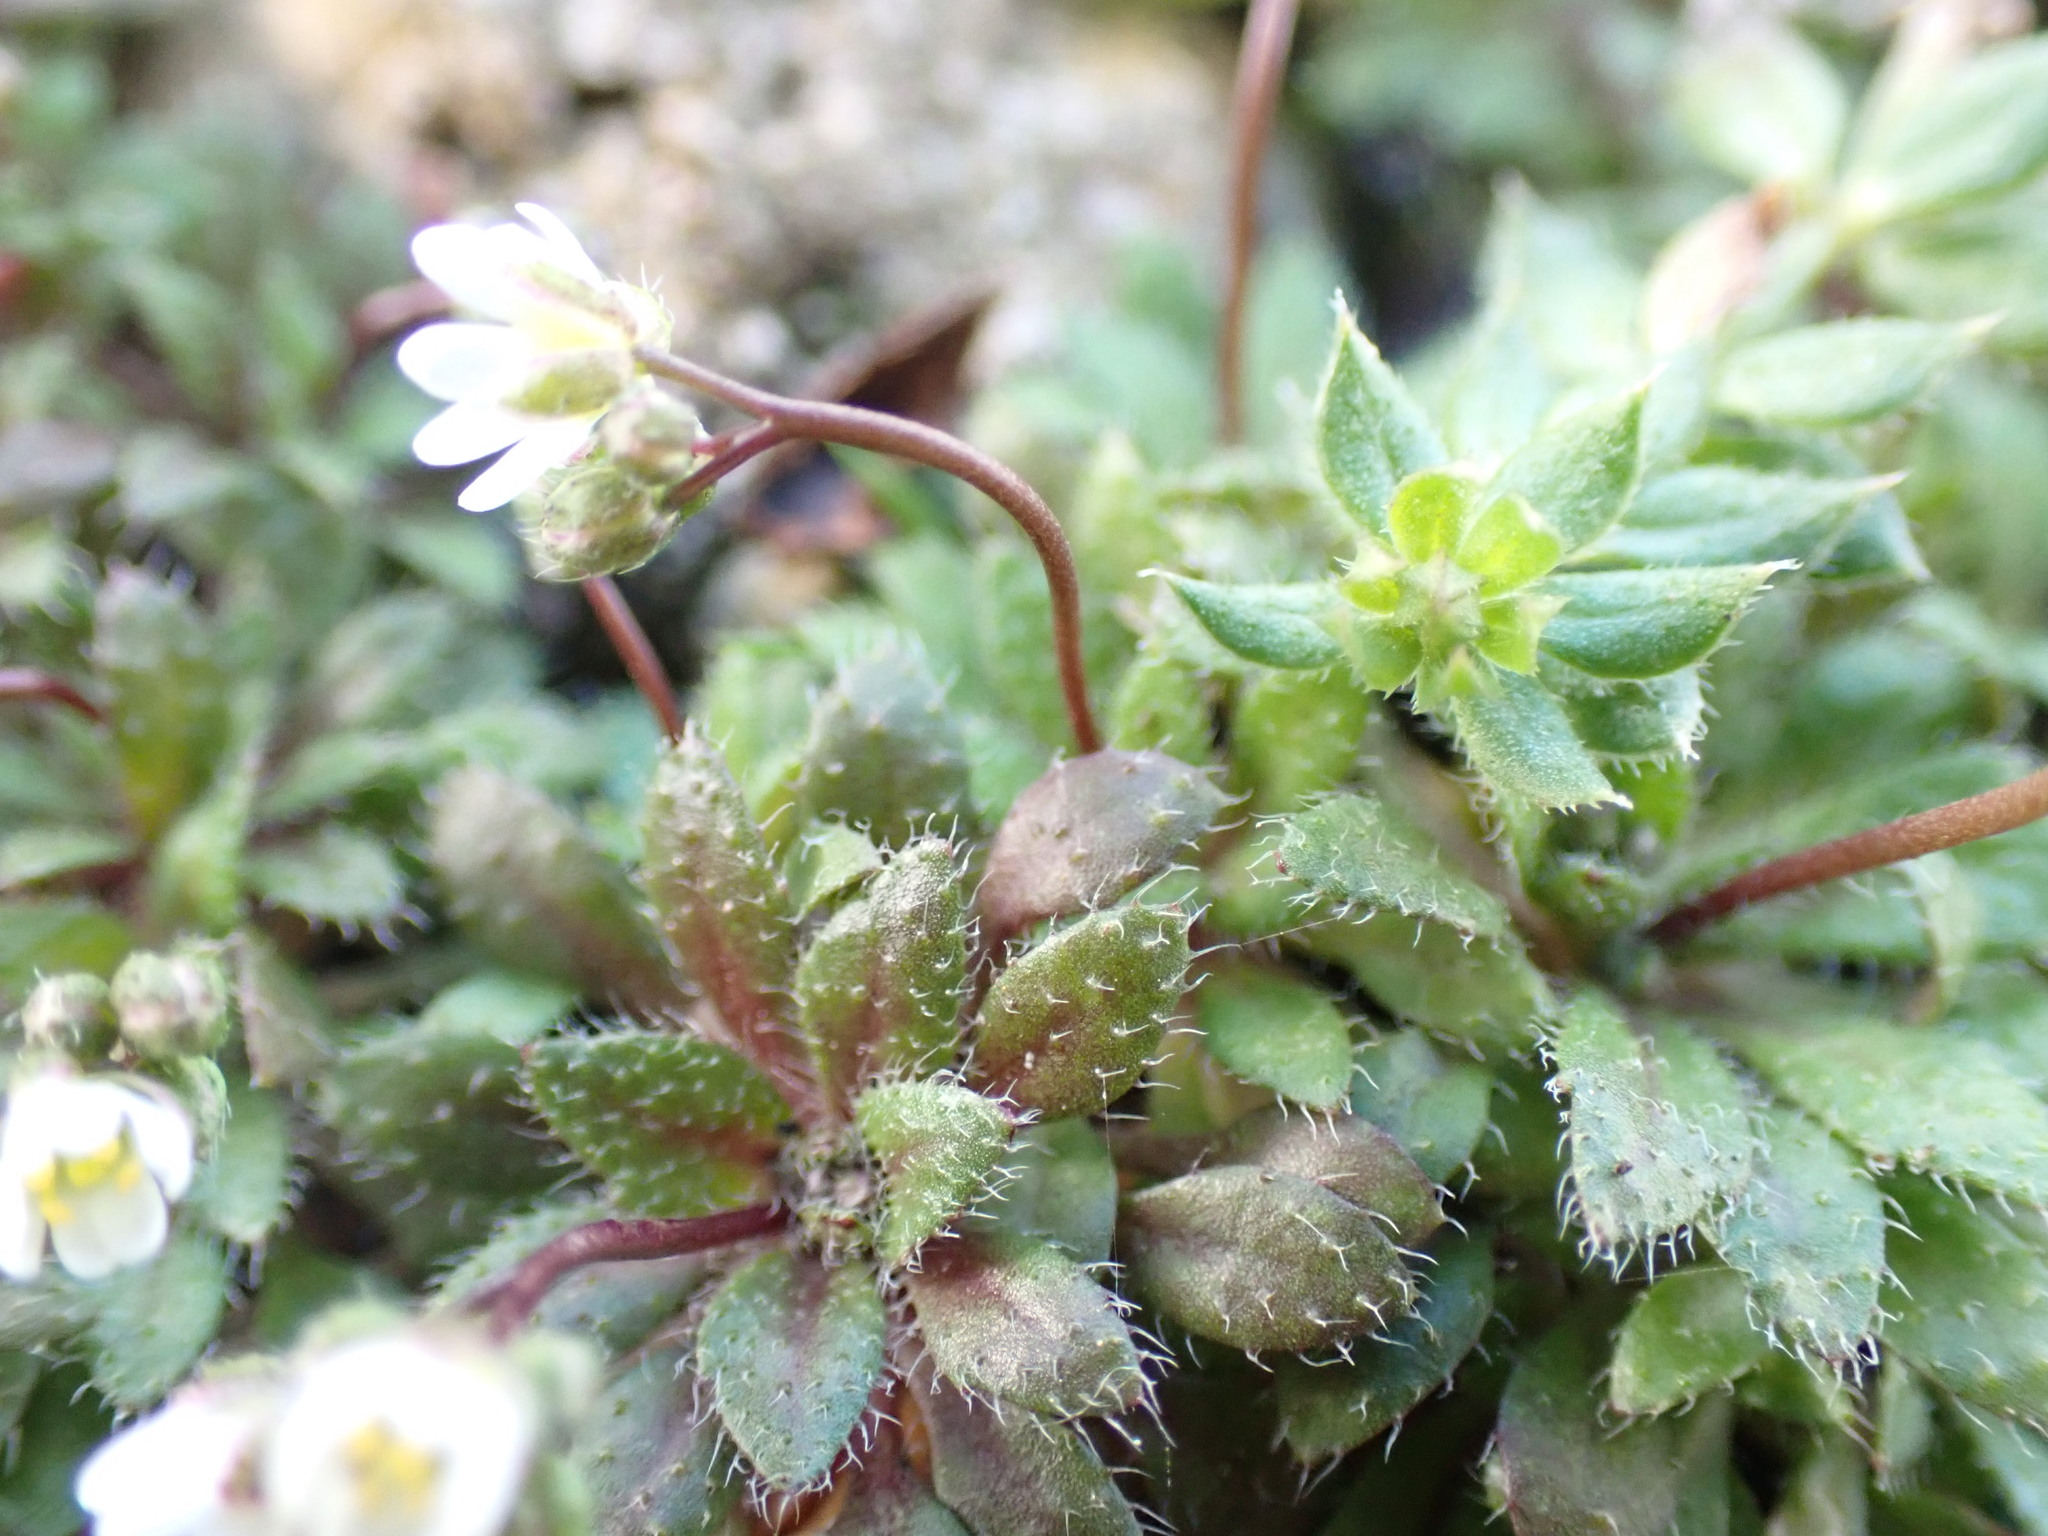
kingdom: Plantae
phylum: Tracheophyta
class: Magnoliopsida
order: Brassicales
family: Brassicaceae
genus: Draba
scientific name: Draba verna
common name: Spring draba
